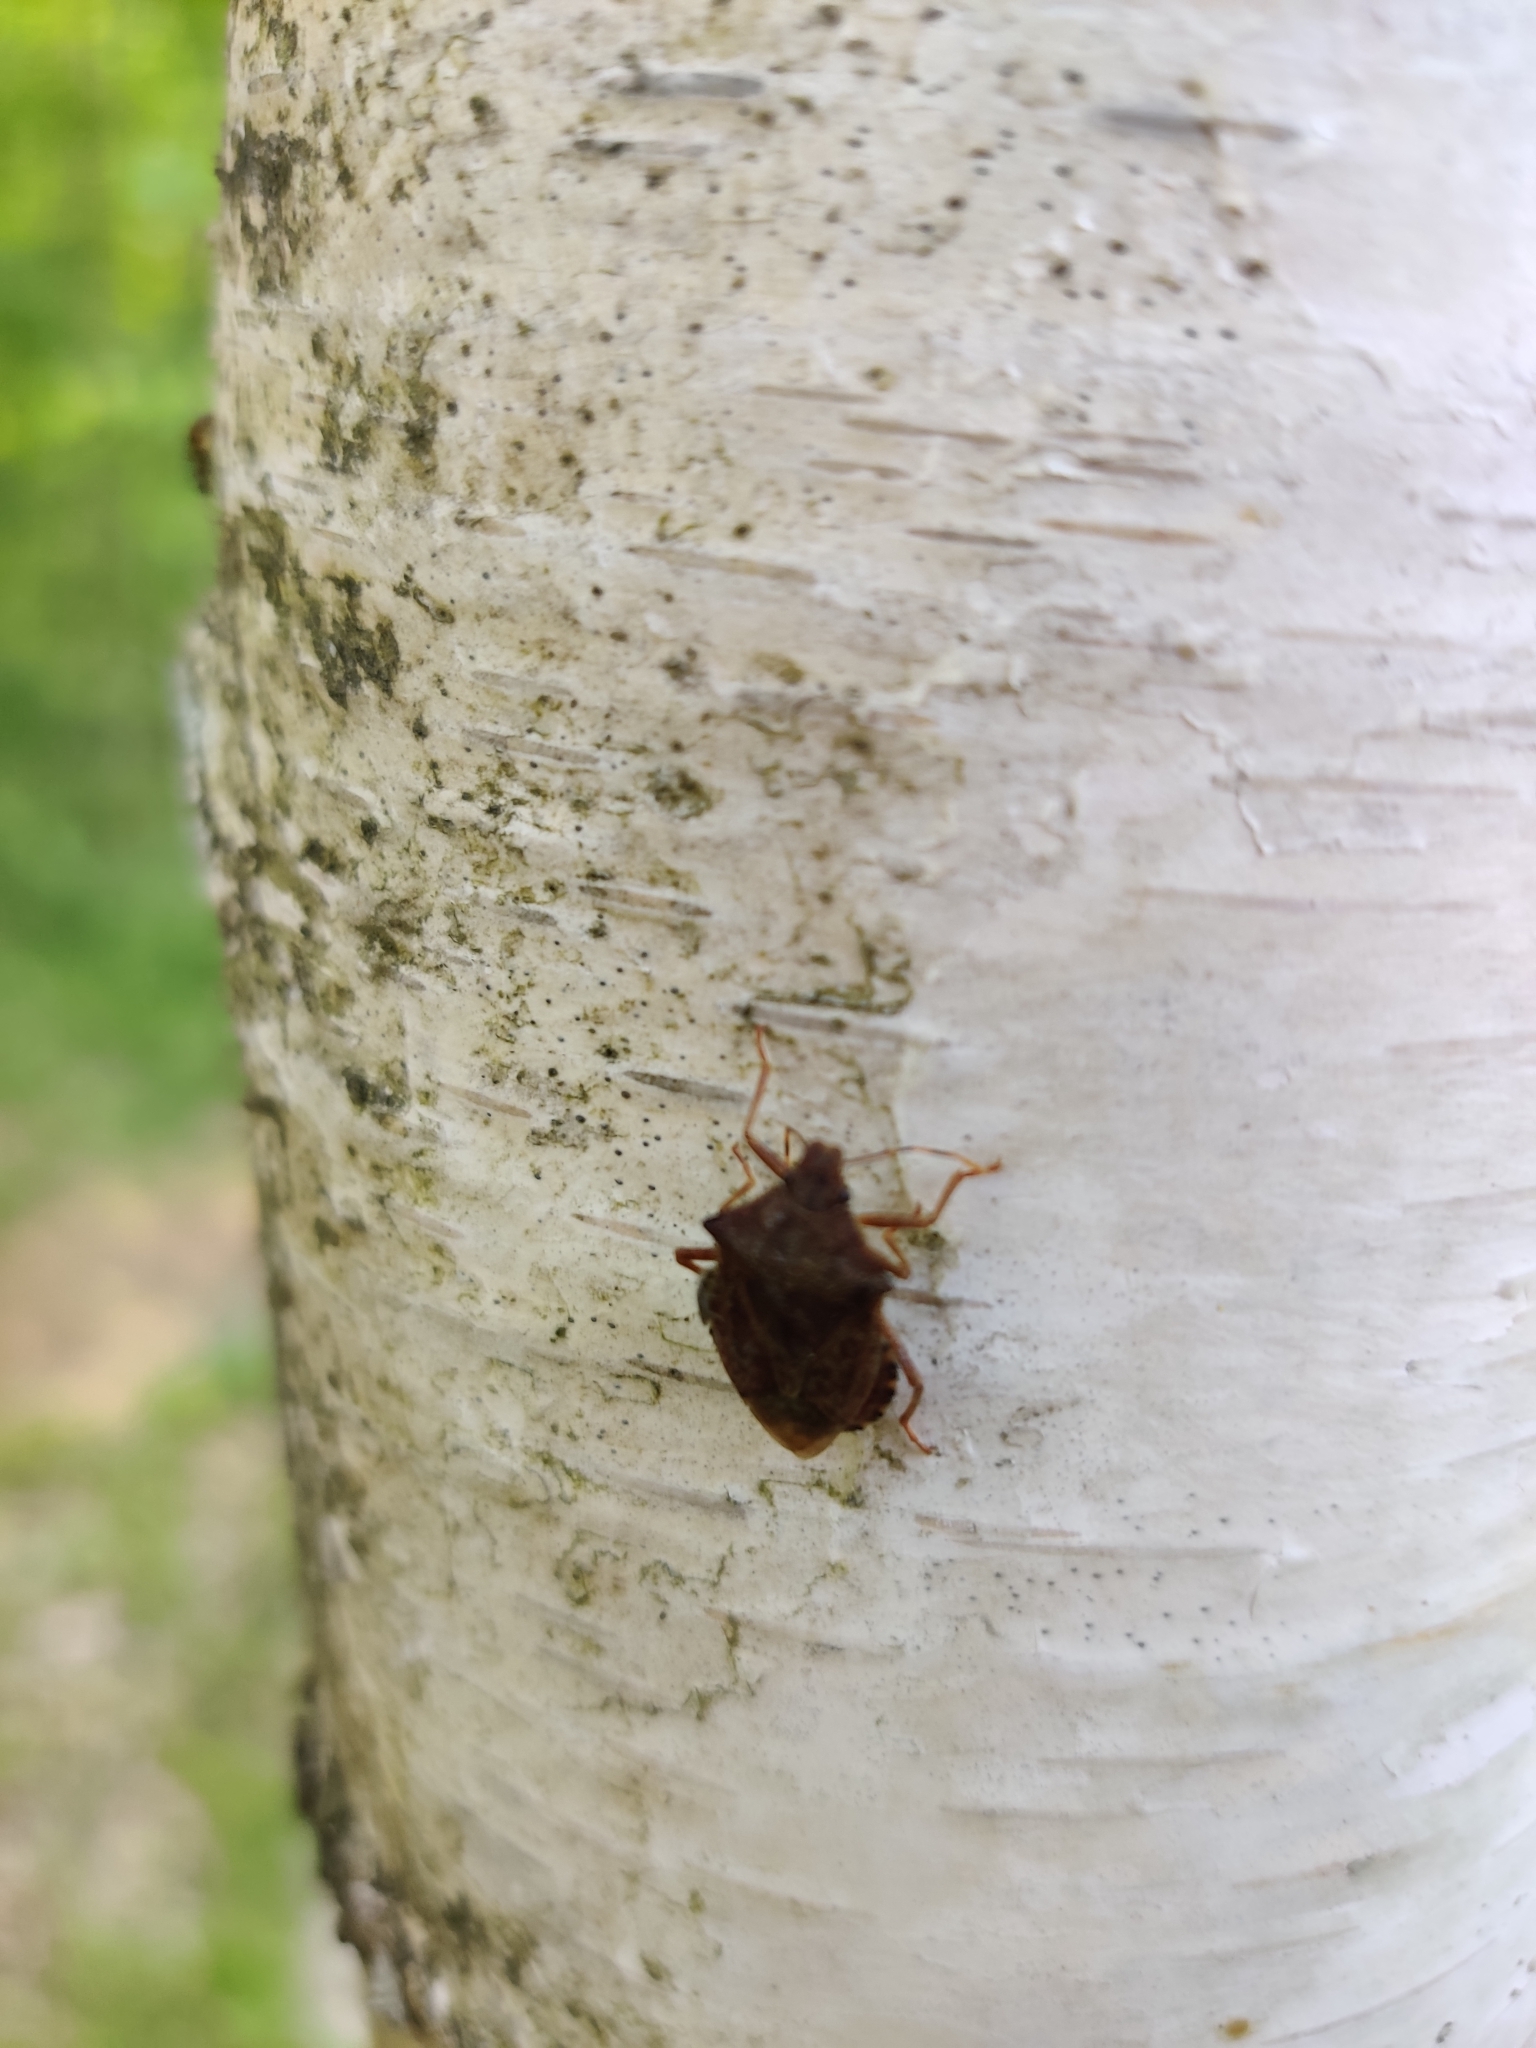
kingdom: Animalia
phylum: Arthropoda
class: Insecta
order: Hemiptera
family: Pentatomidae
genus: Arma
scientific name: Arma custos
